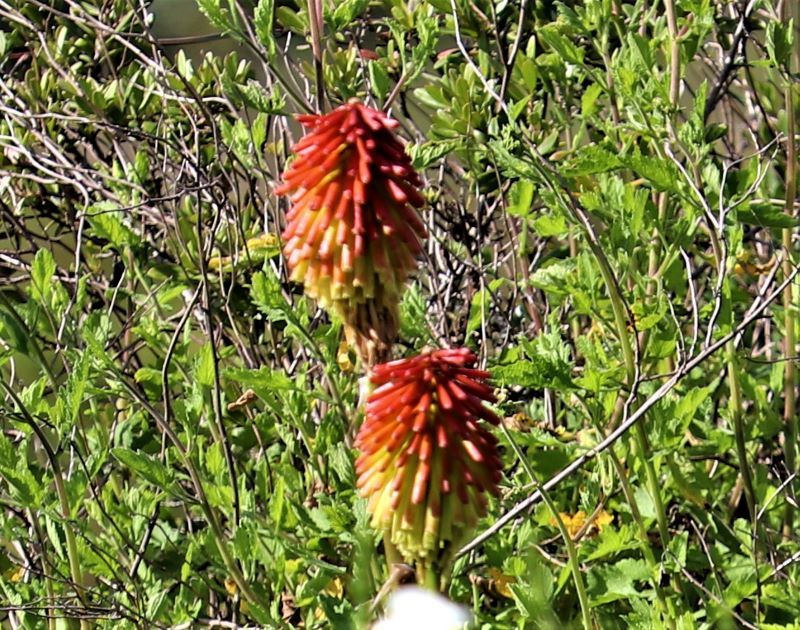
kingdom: Plantae
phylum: Tracheophyta
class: Liliopsida
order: Asparagales
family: Asphodelaceae
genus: Kniphofia
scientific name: Kniphofia uvaria
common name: Red-hot-poker
